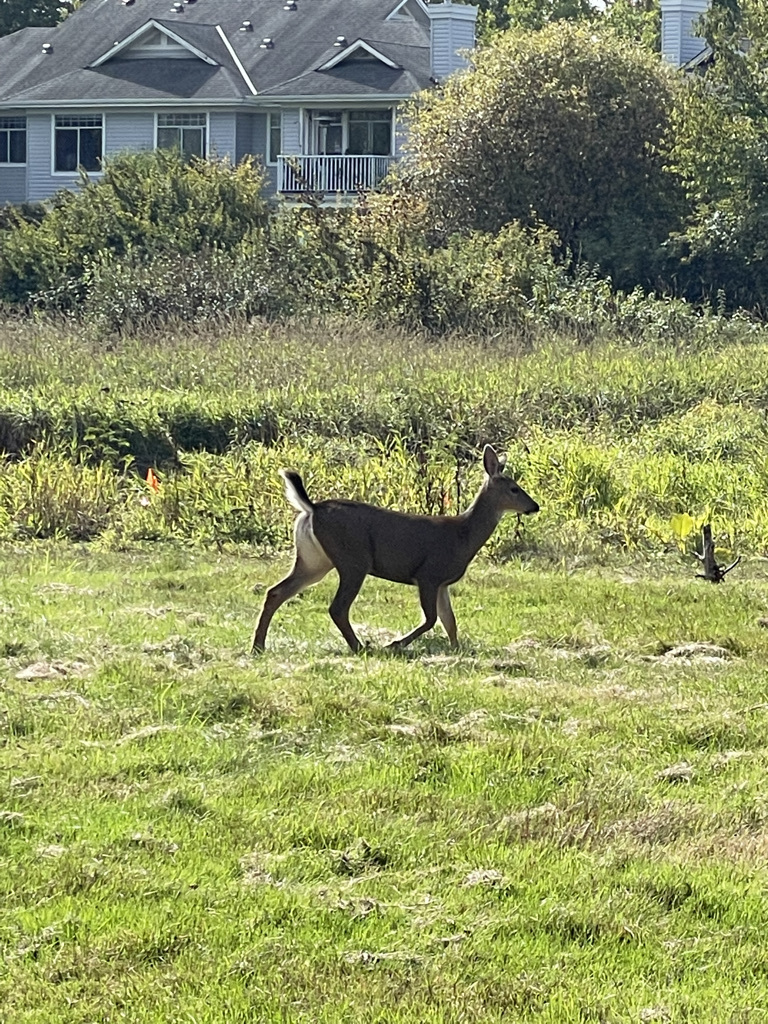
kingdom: Animalia
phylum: Chordata
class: Mammalia
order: Artiodactyla
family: Cervidae
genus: Odocoileus
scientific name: Odocoileus hemionus
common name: Mule deer
